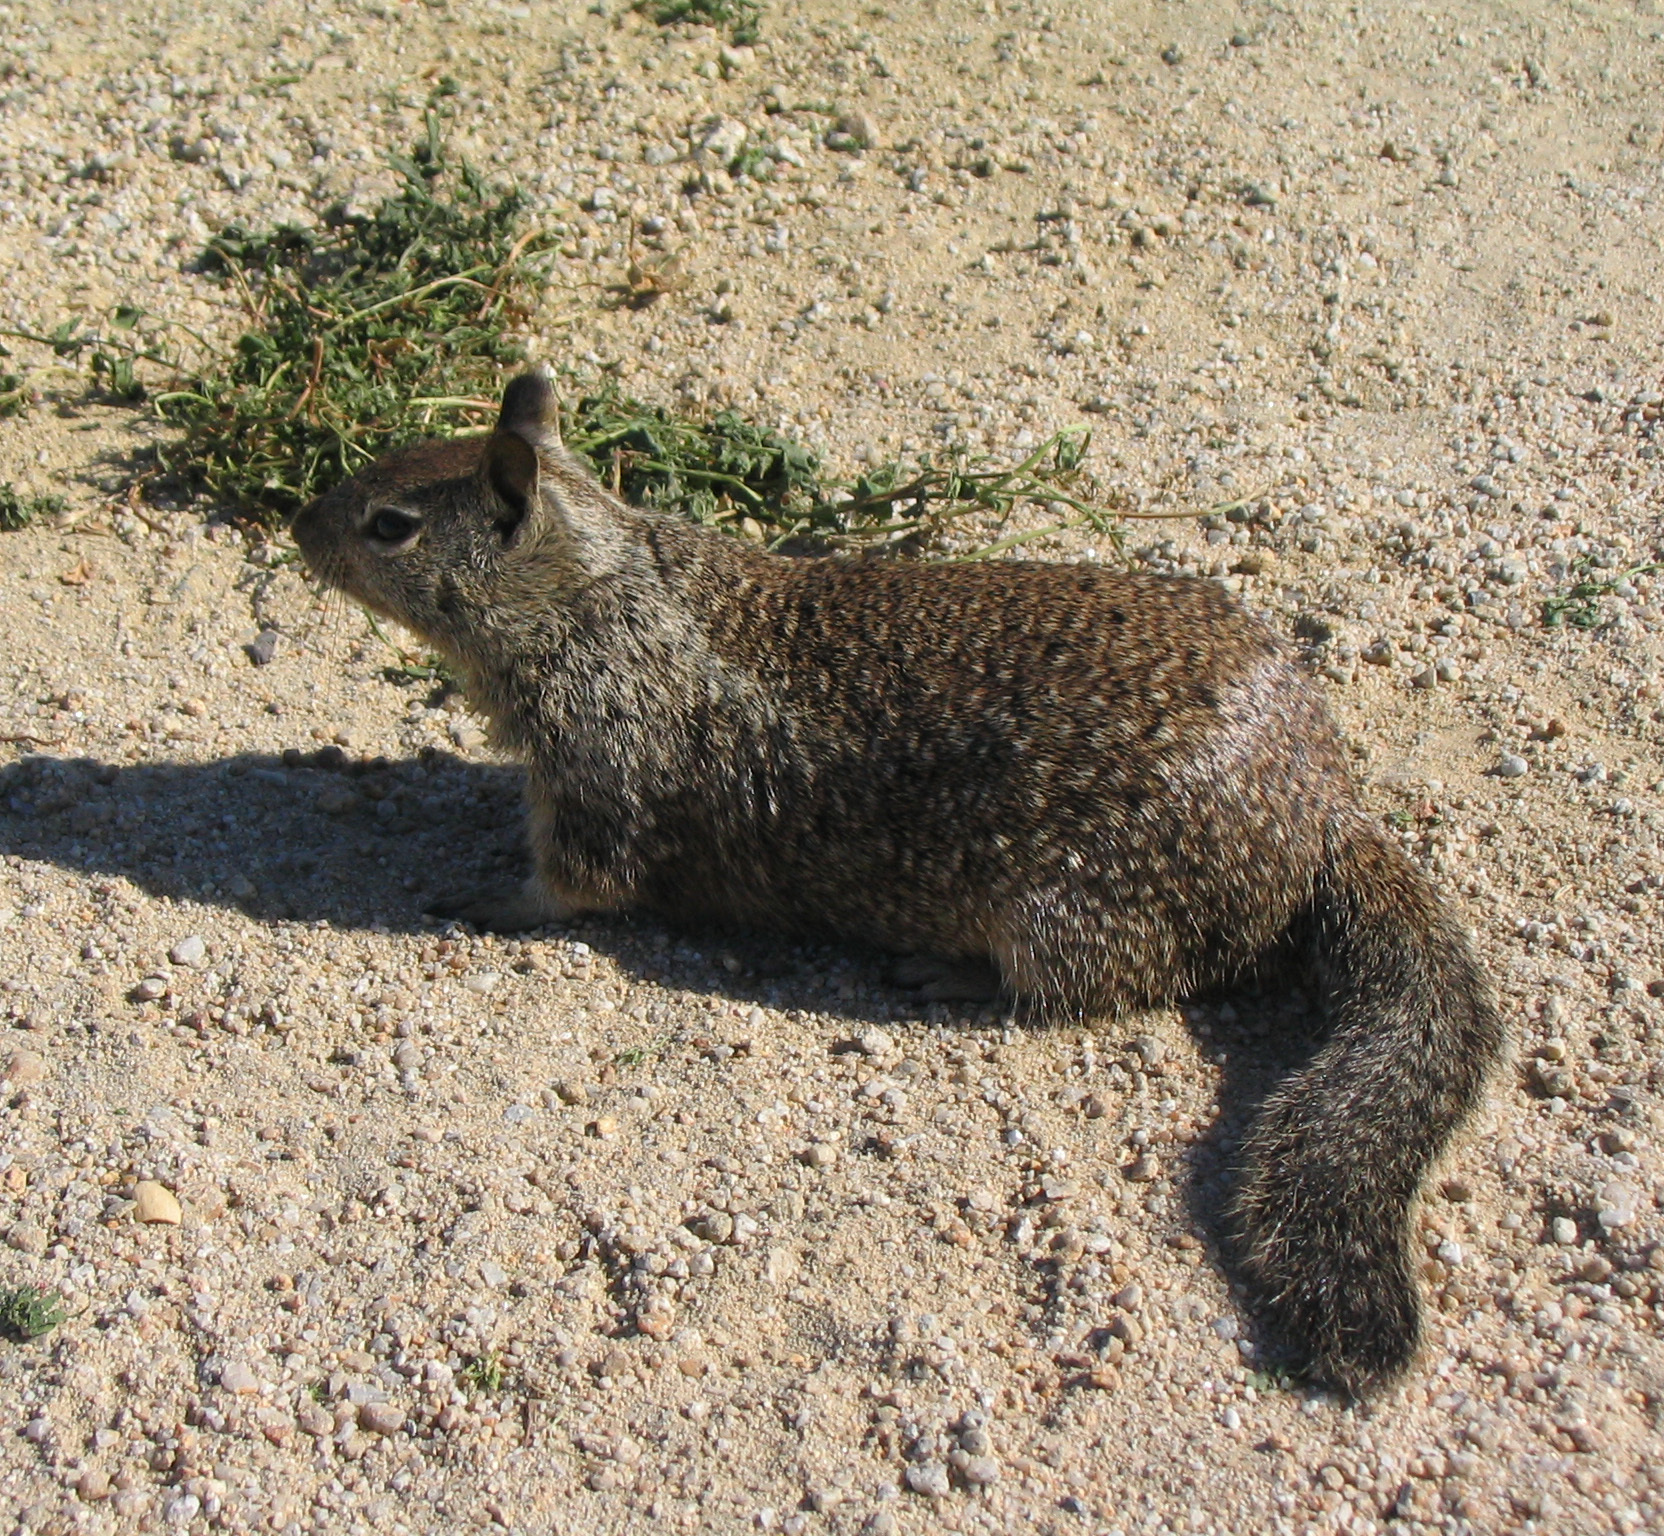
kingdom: Animalia
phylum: Chordata
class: Mammalia
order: Rodentia
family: Sciuridae
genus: Otospermophilus
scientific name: Otospermophilus beecheyi
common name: California ground squirrel
